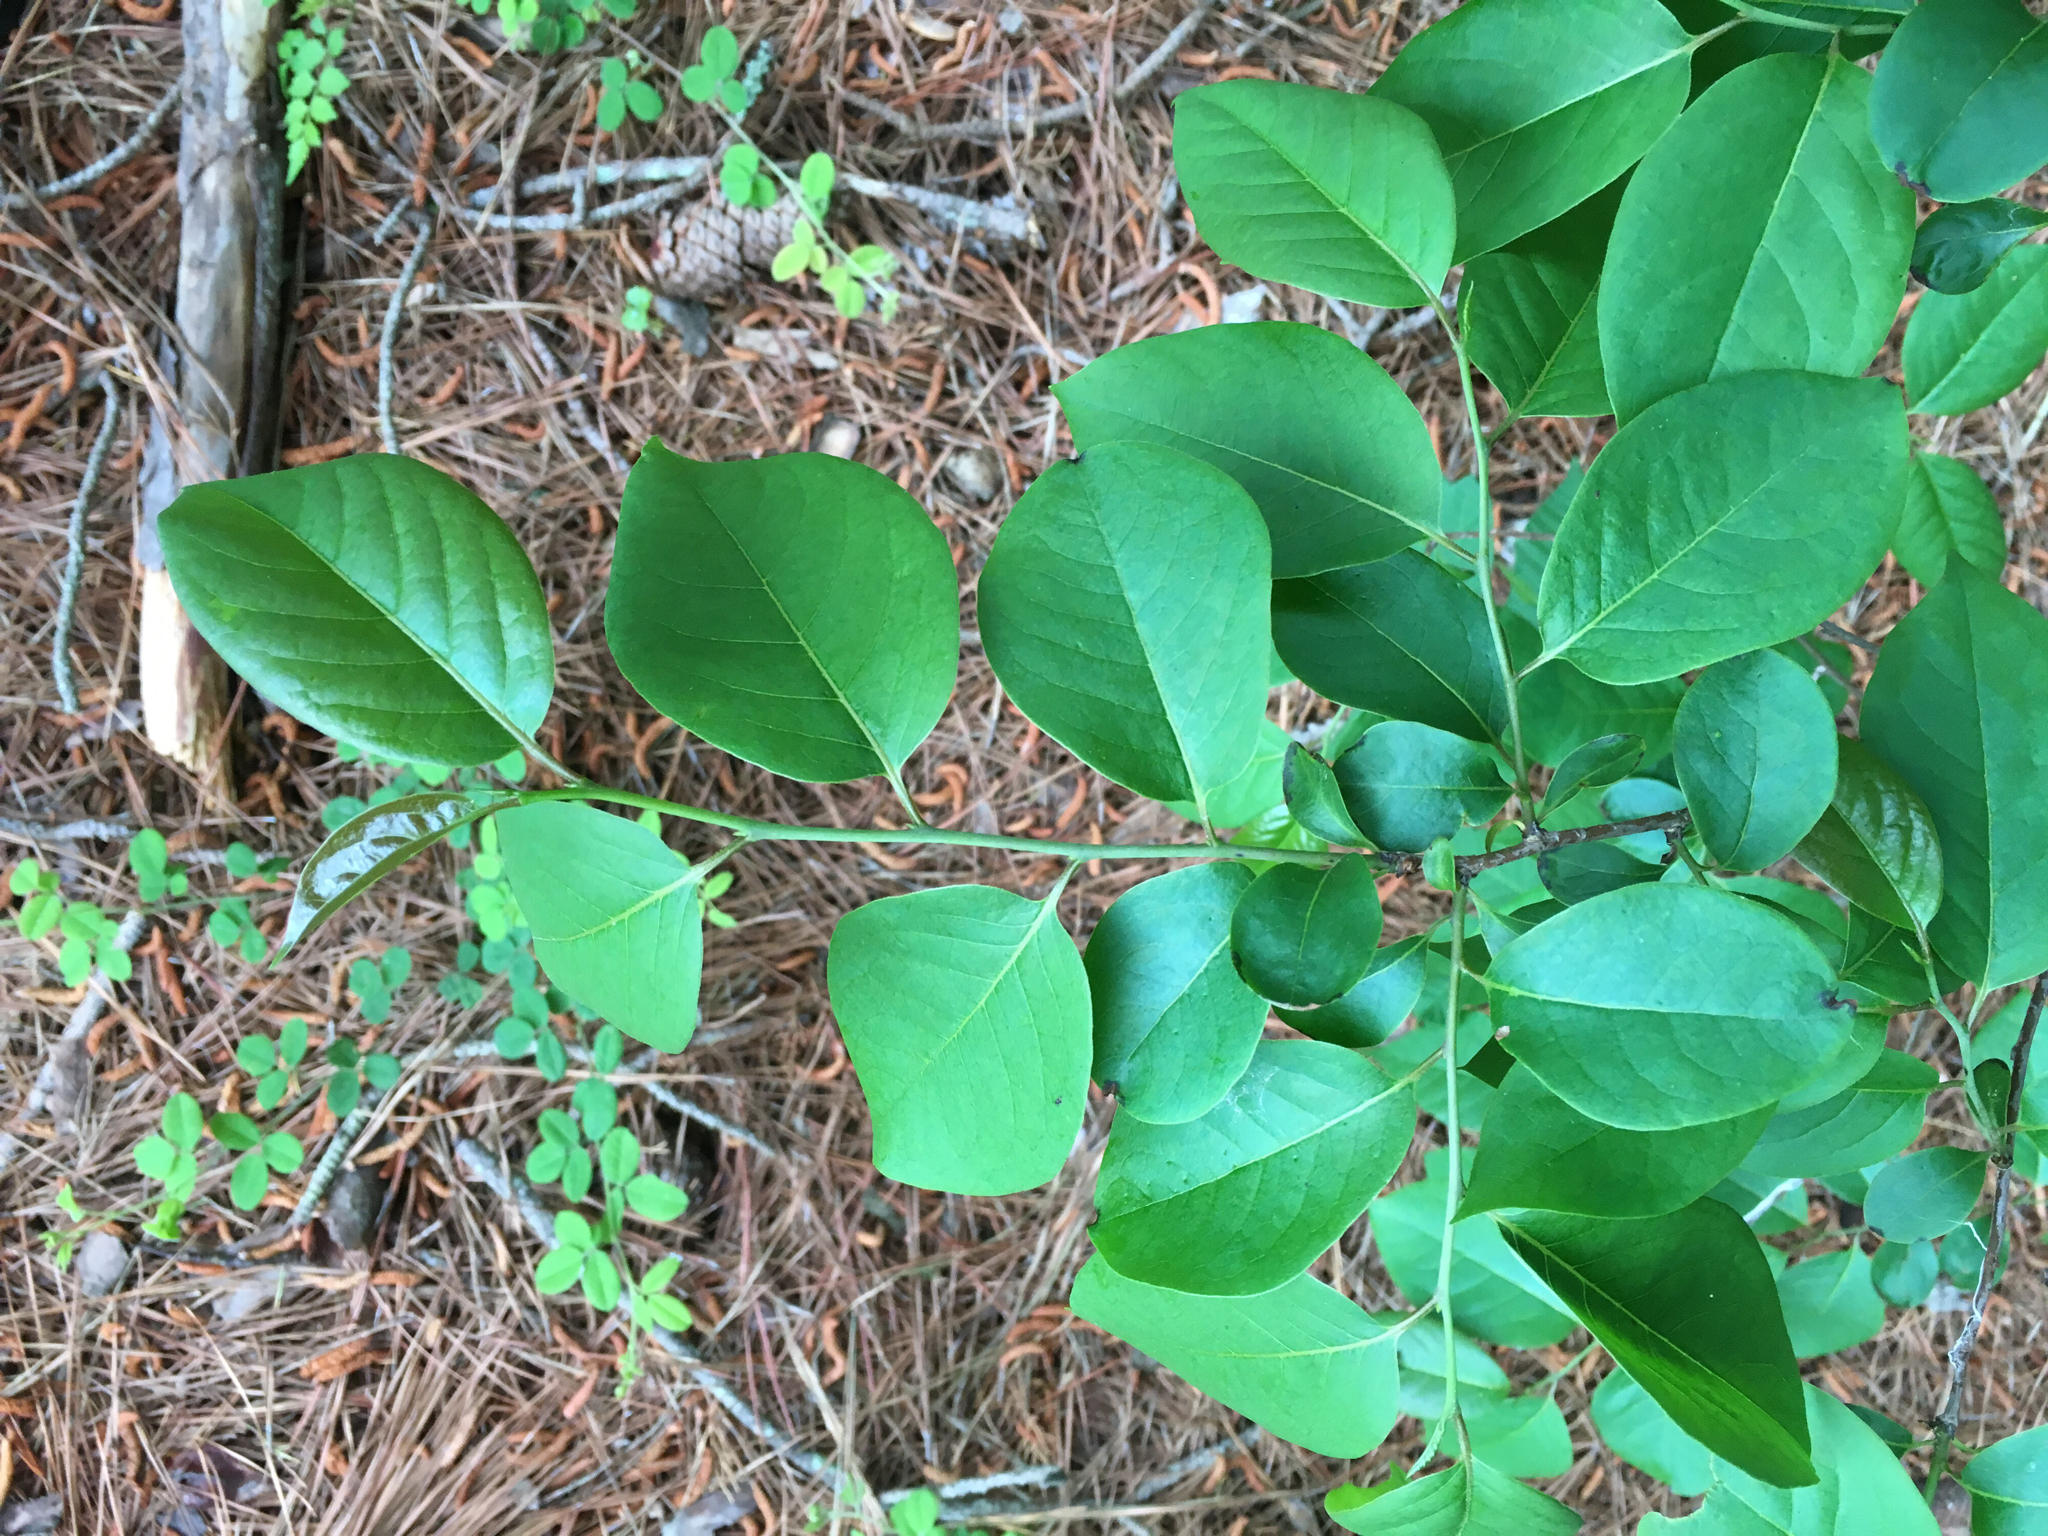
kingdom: Plantae
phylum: Tracheophyta
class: Magnoliopsida
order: Ericales
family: Ebenaceae
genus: Diospyros
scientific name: Diospyros virginiana
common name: Persimmon
